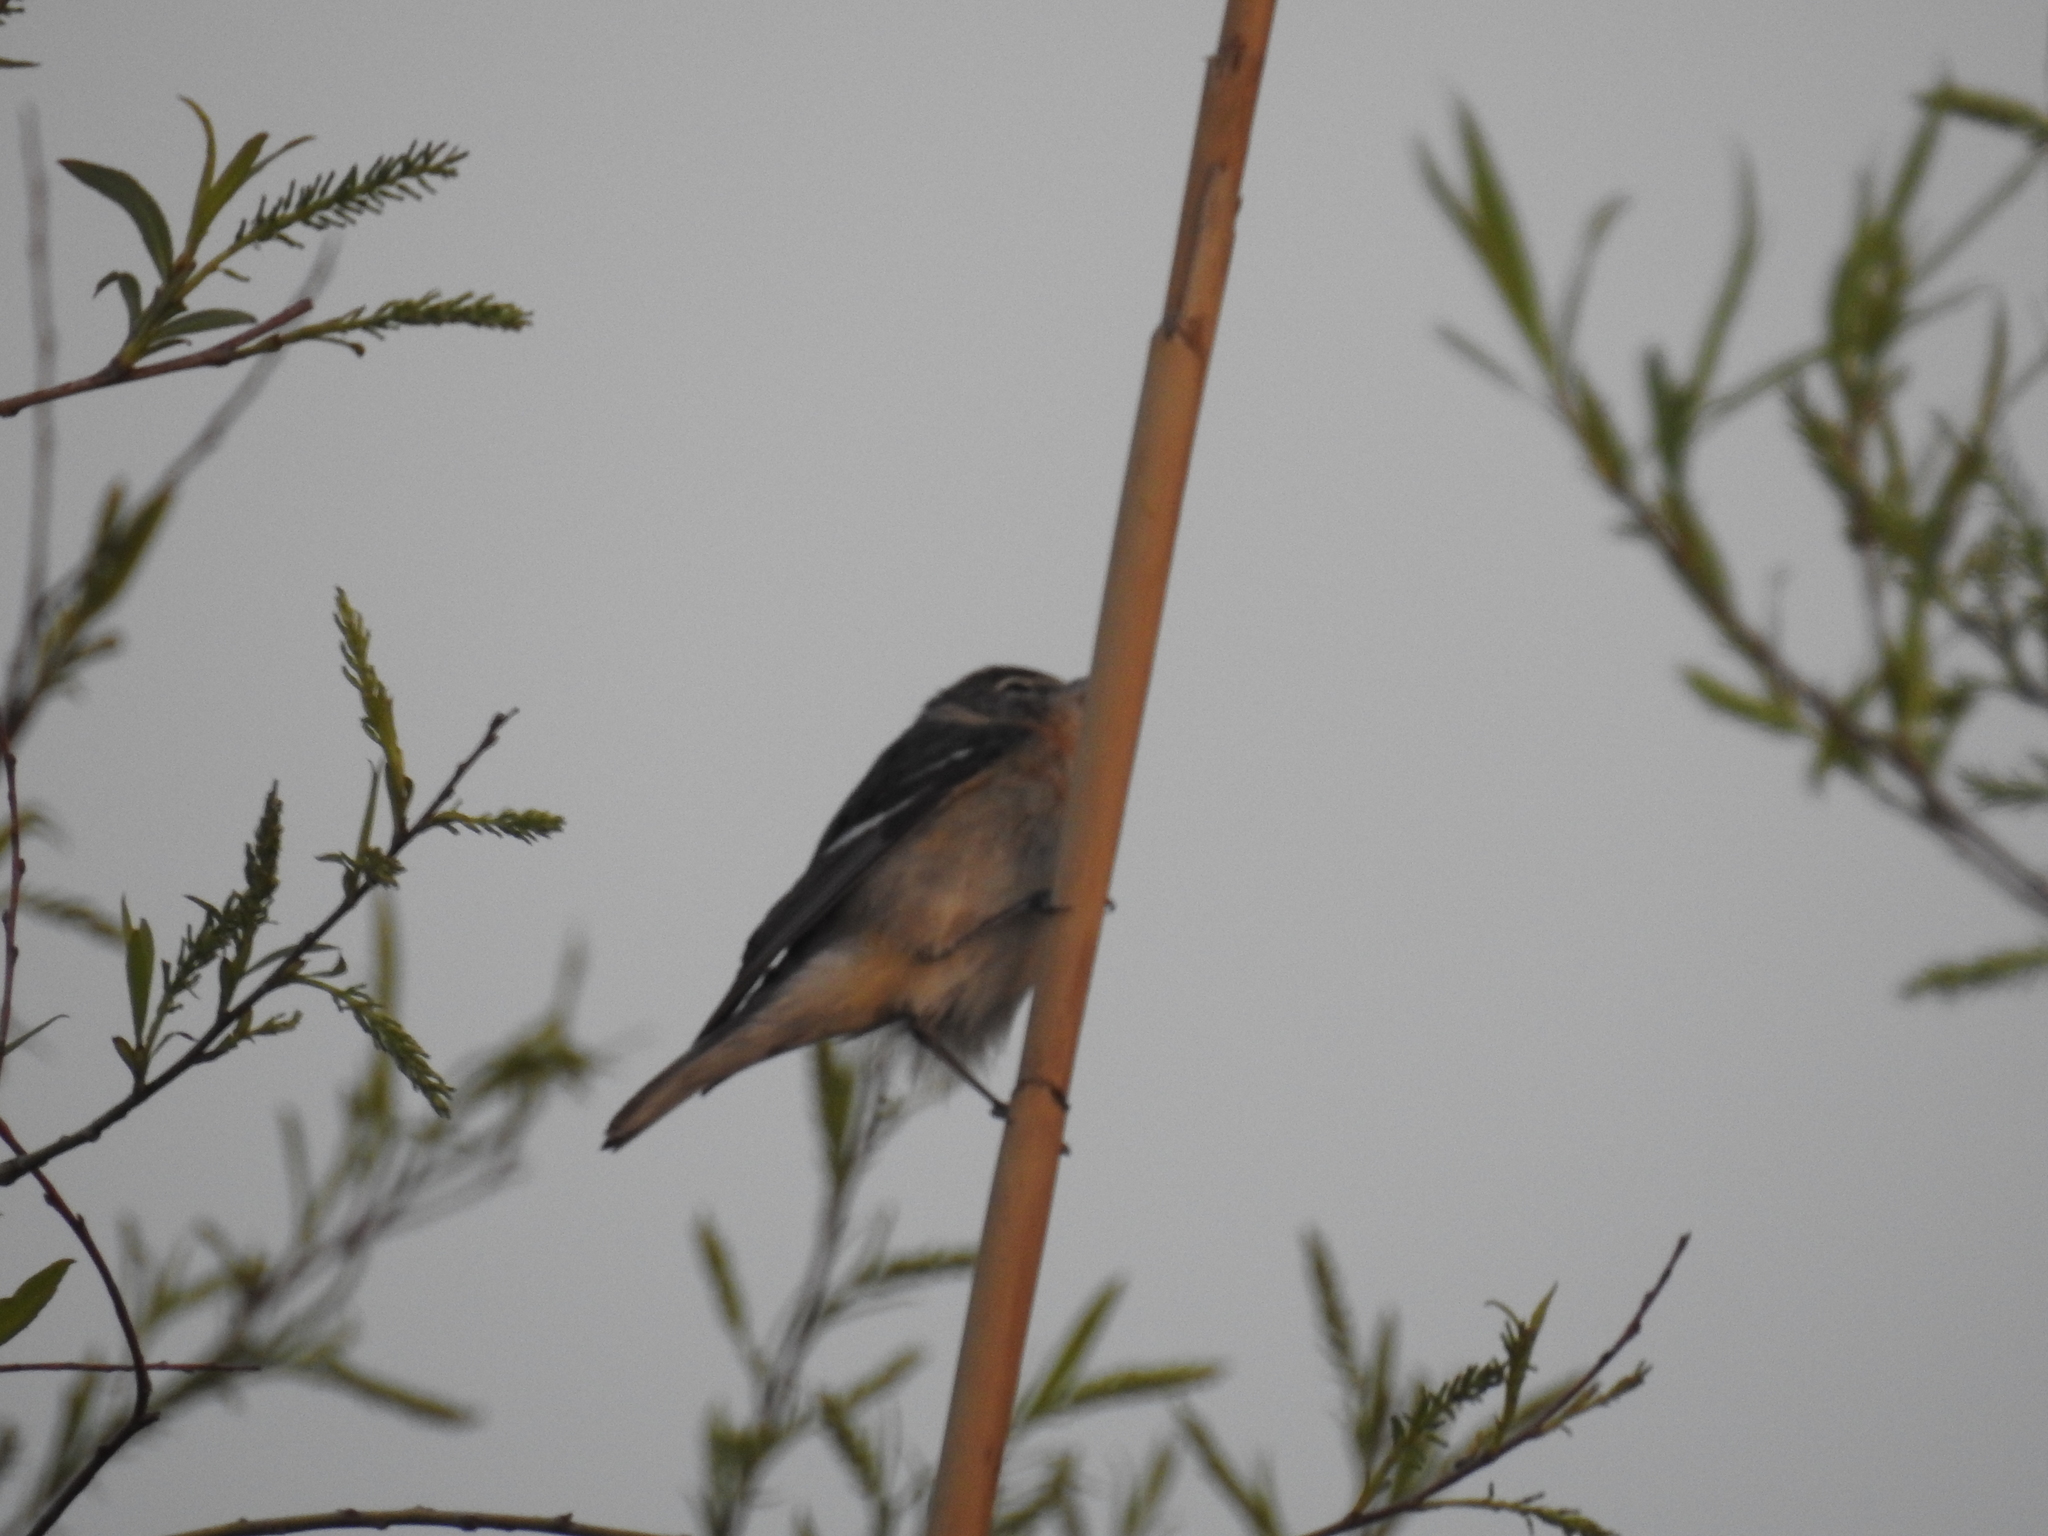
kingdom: Animalia
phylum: Chordata
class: Aves
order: Passeriformes
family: Parulidae
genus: Setophaga
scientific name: Setophaga castanea
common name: Bay-breasted warbler
